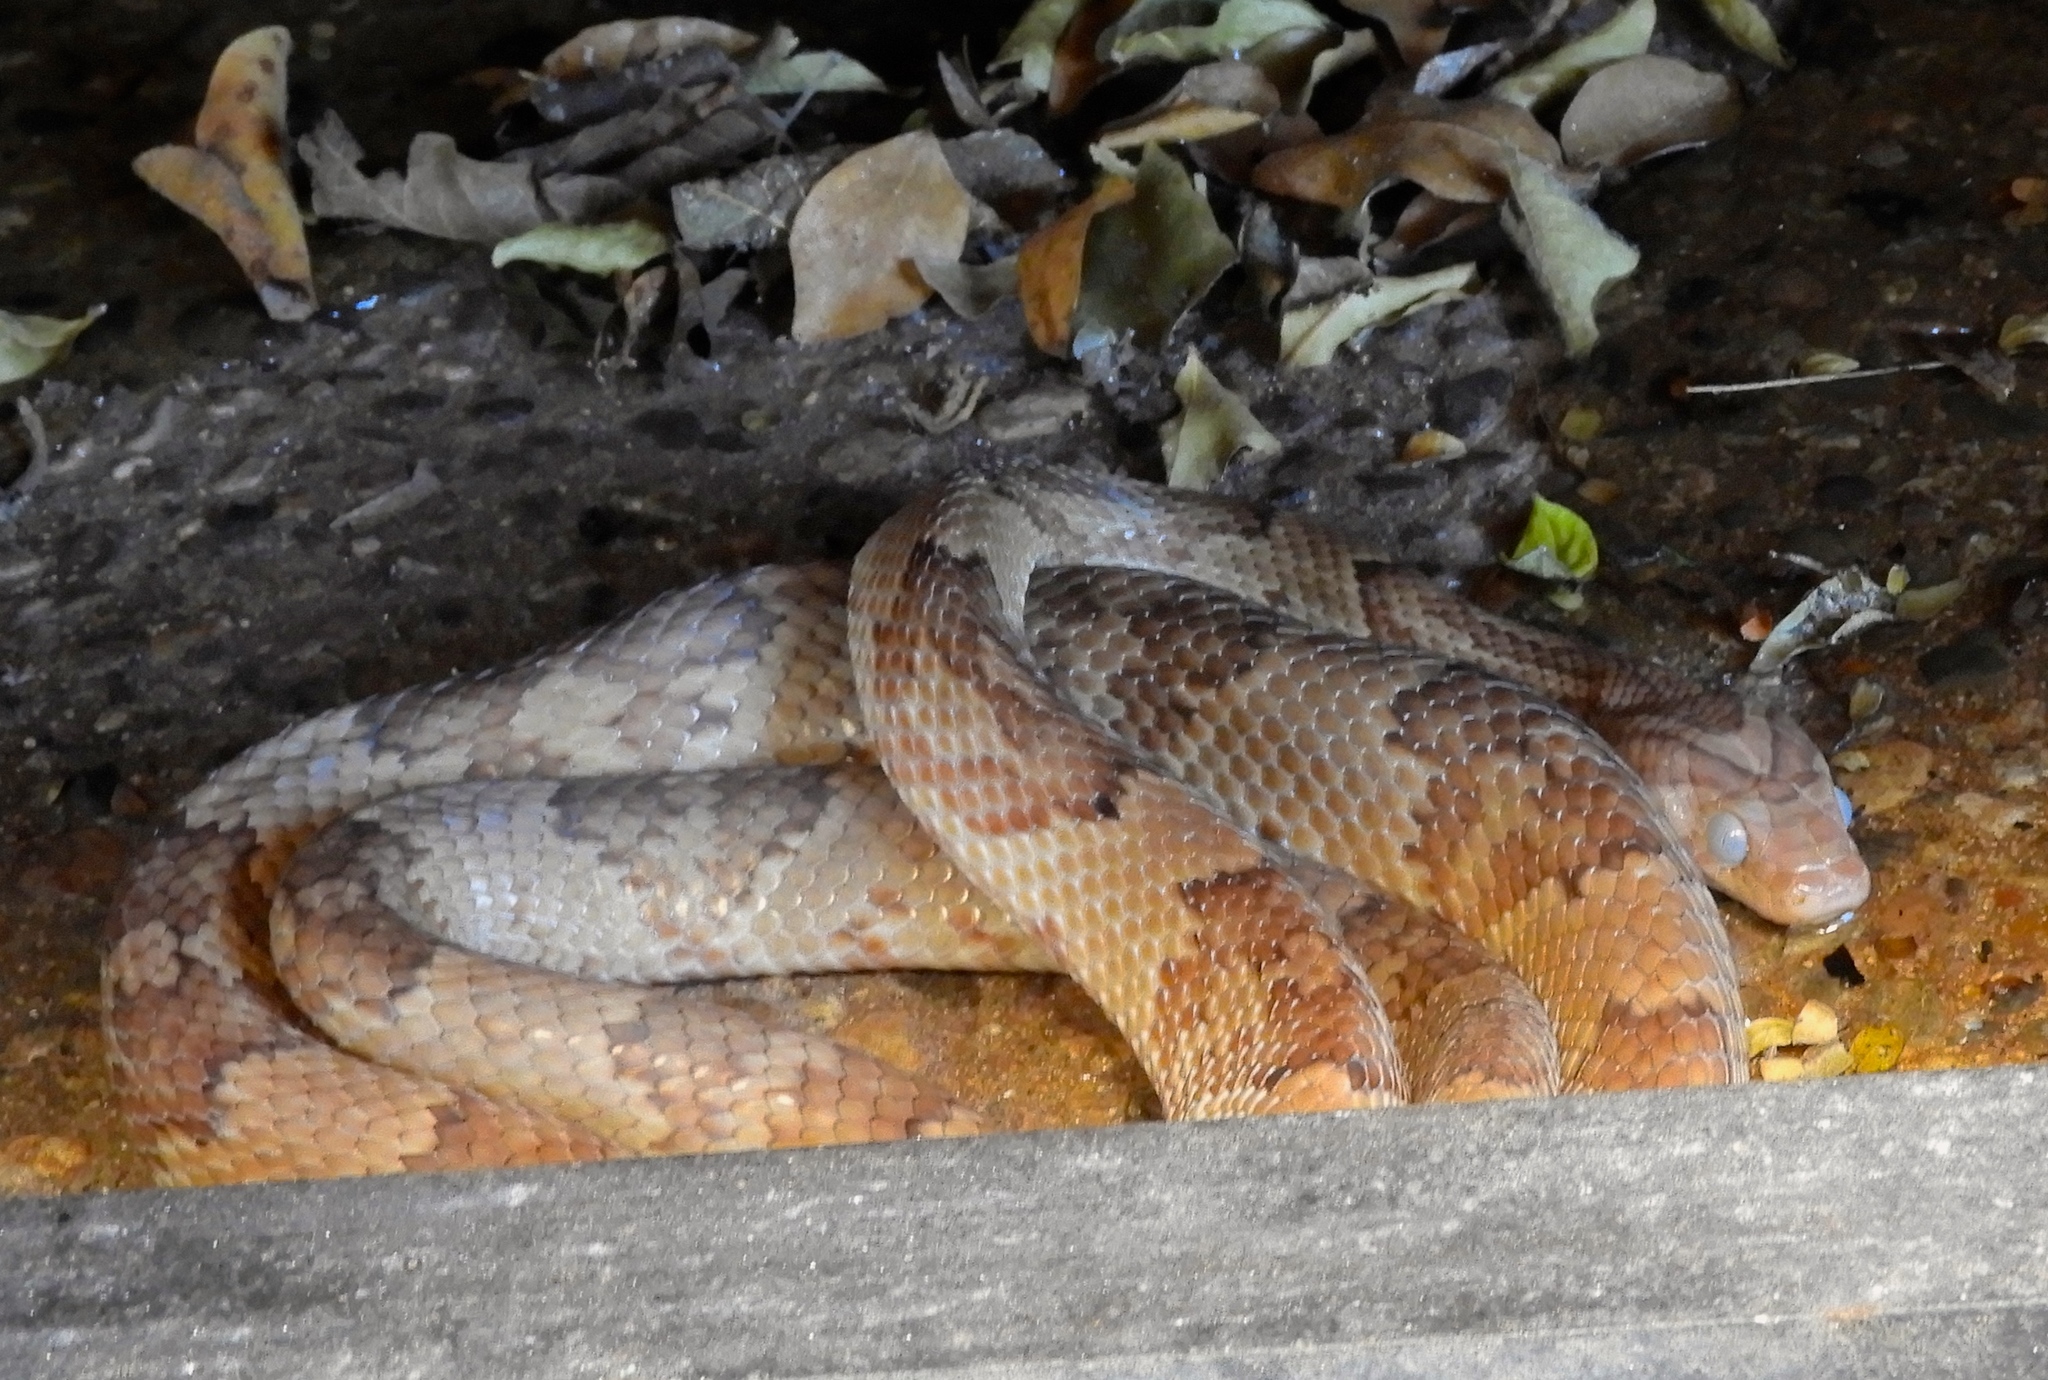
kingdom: Animalia
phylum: Chordata
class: Squamata
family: Colubridae
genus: Trimorphodon
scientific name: Trimorphodon paucimaculatus
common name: Sinaloan lyresnake
